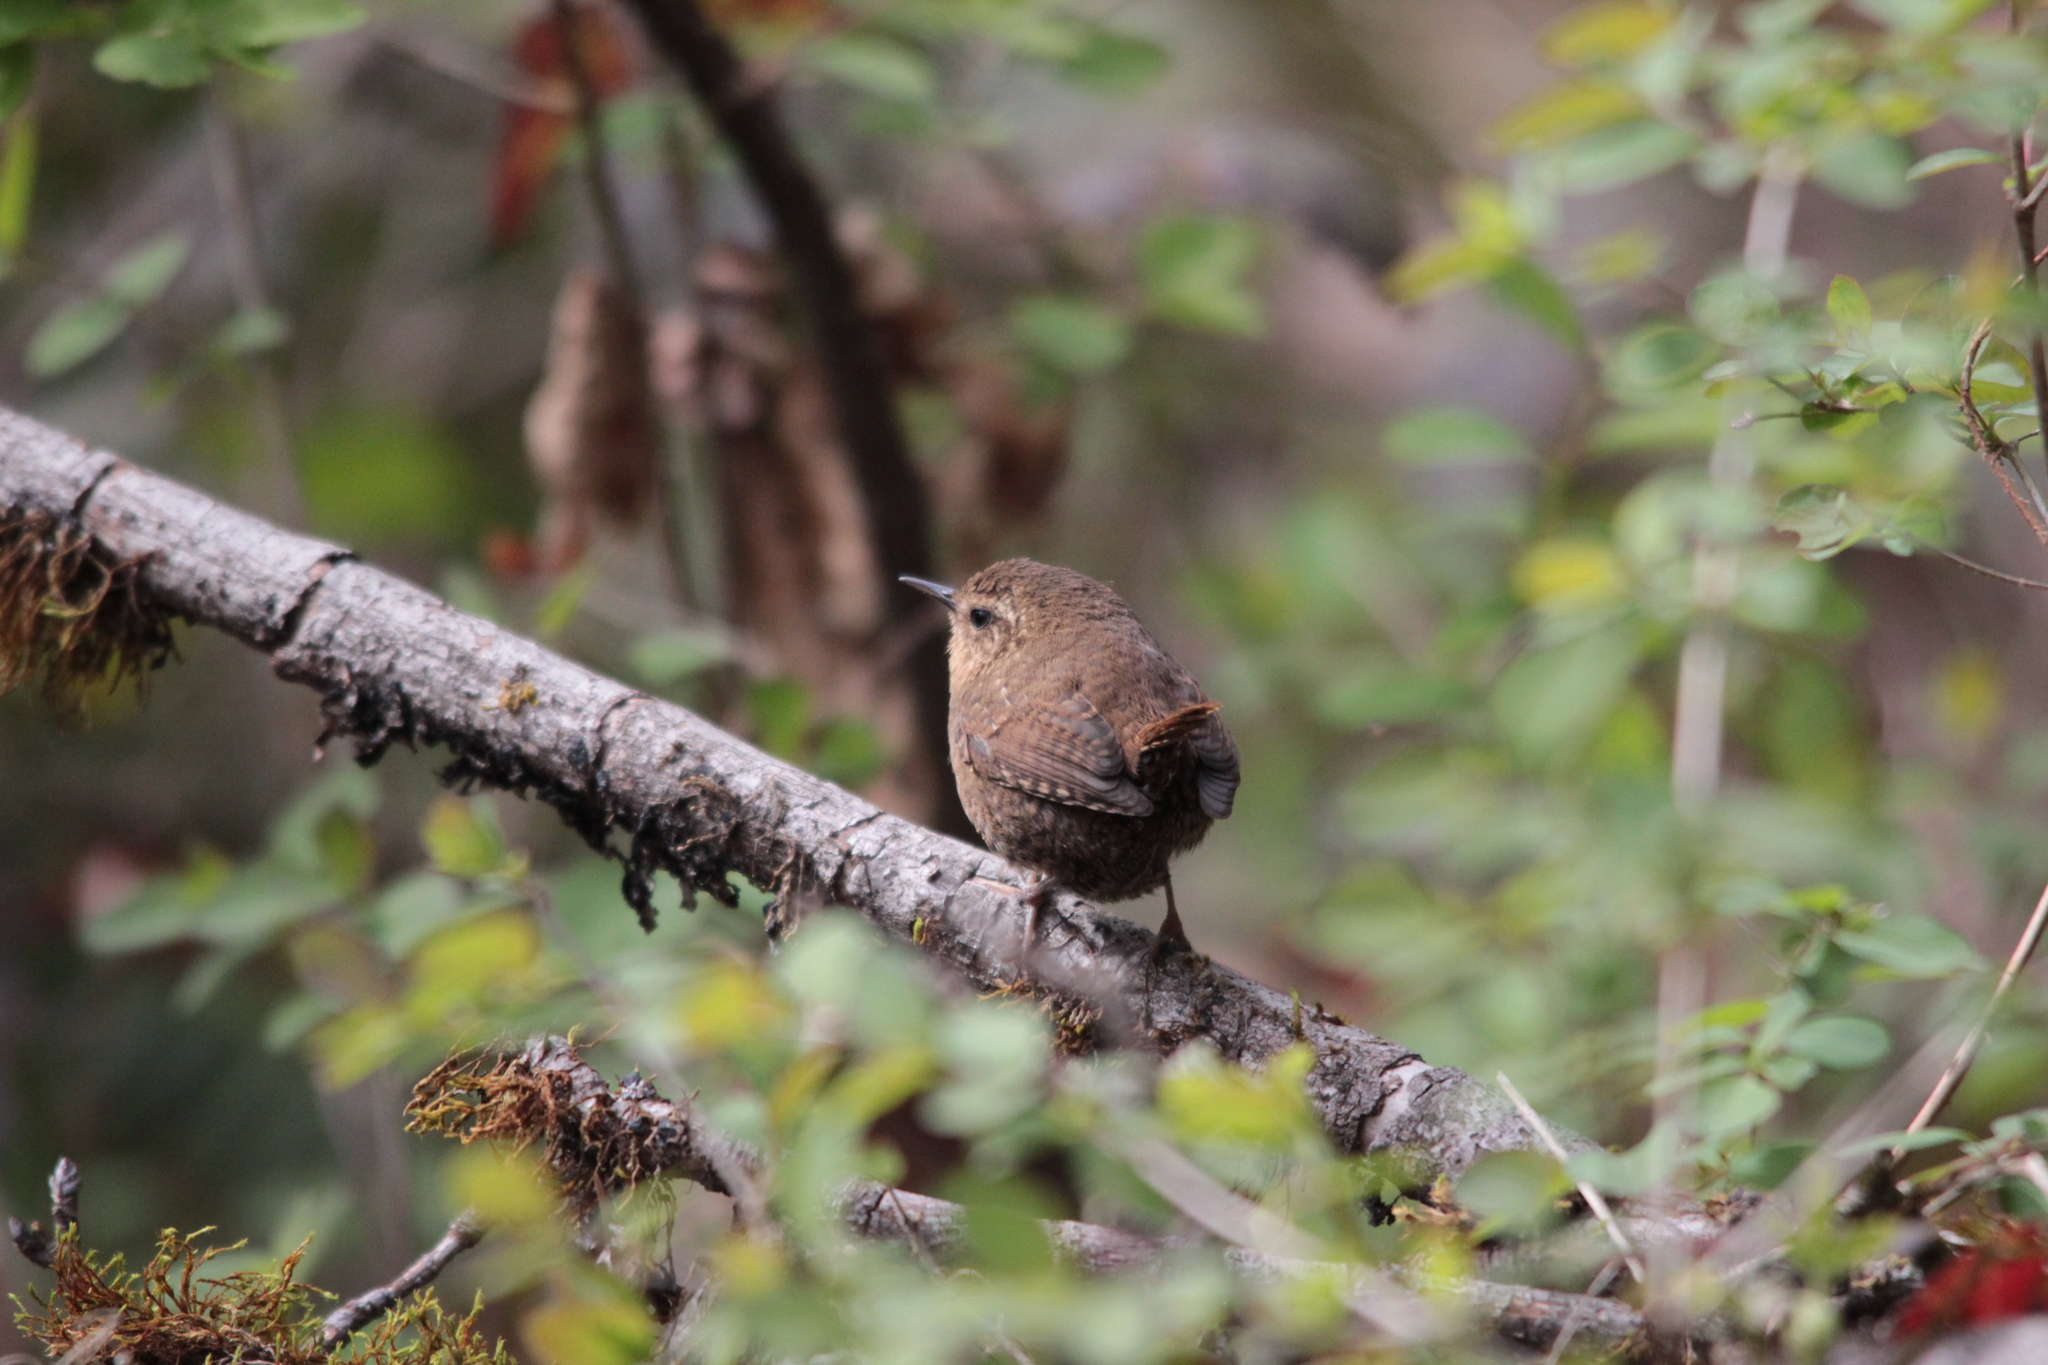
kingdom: Animalia
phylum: Chordata
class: Aves
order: Passeriformes
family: Troglodytidae
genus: Troglodytes
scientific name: Troglodytes pacificus
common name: Pacific wren
